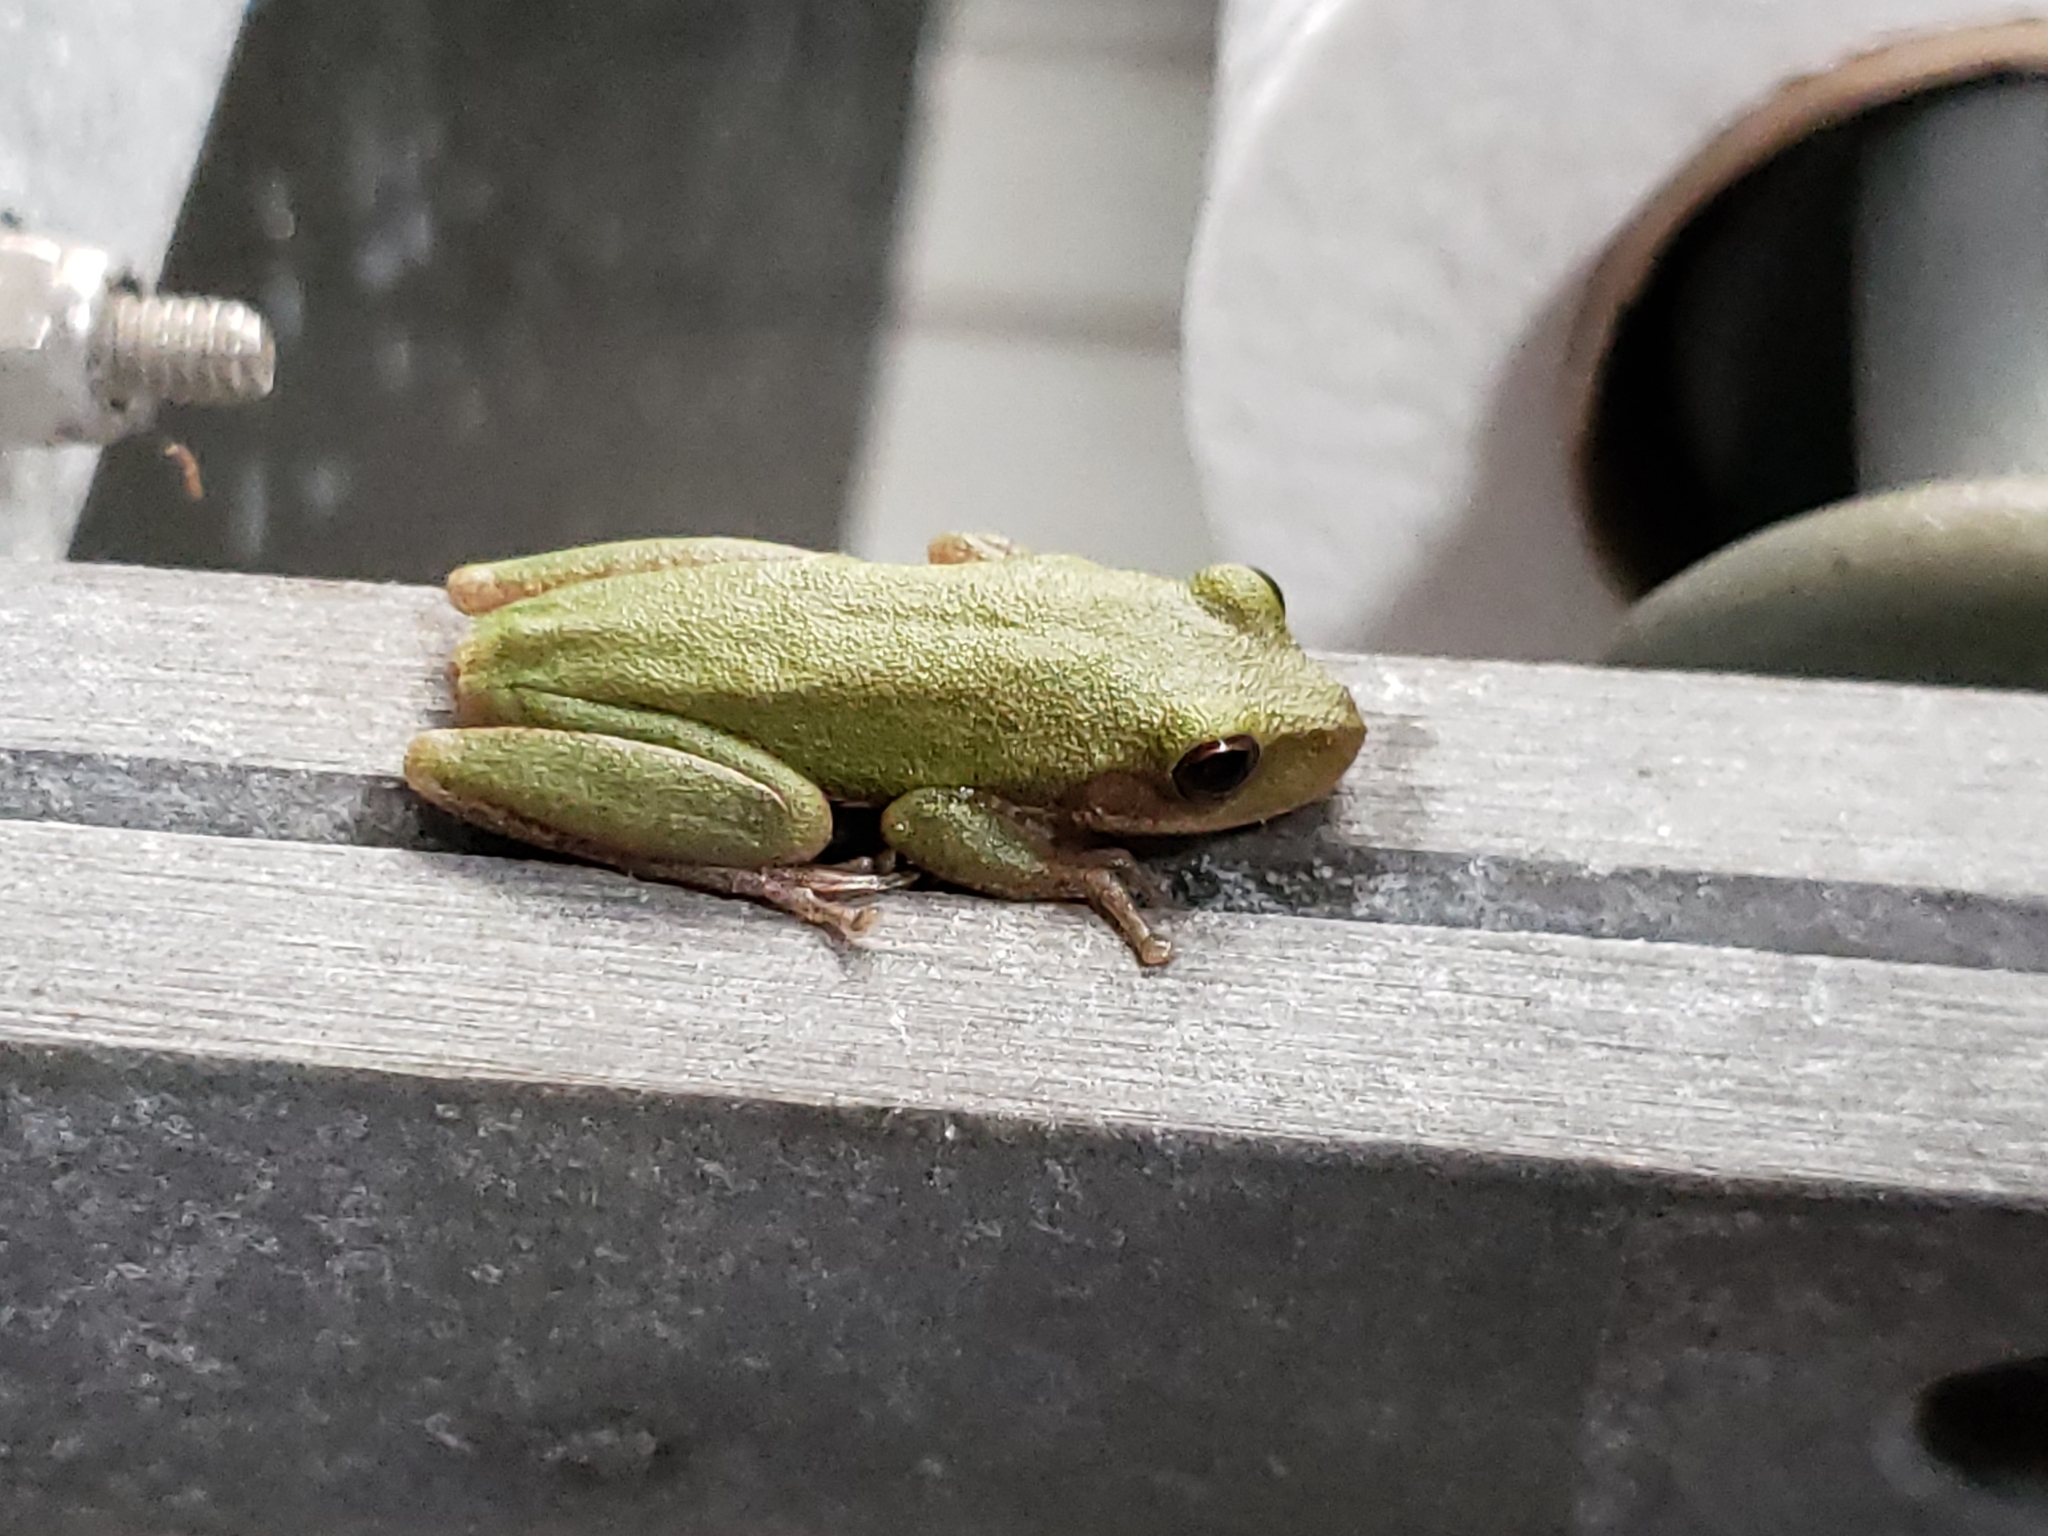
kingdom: Animalia
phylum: Chordata
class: Amphibia
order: Anura
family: Hylidae
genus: Dryophytes
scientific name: Dryophytes squirellus
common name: Squirrel treefrog
